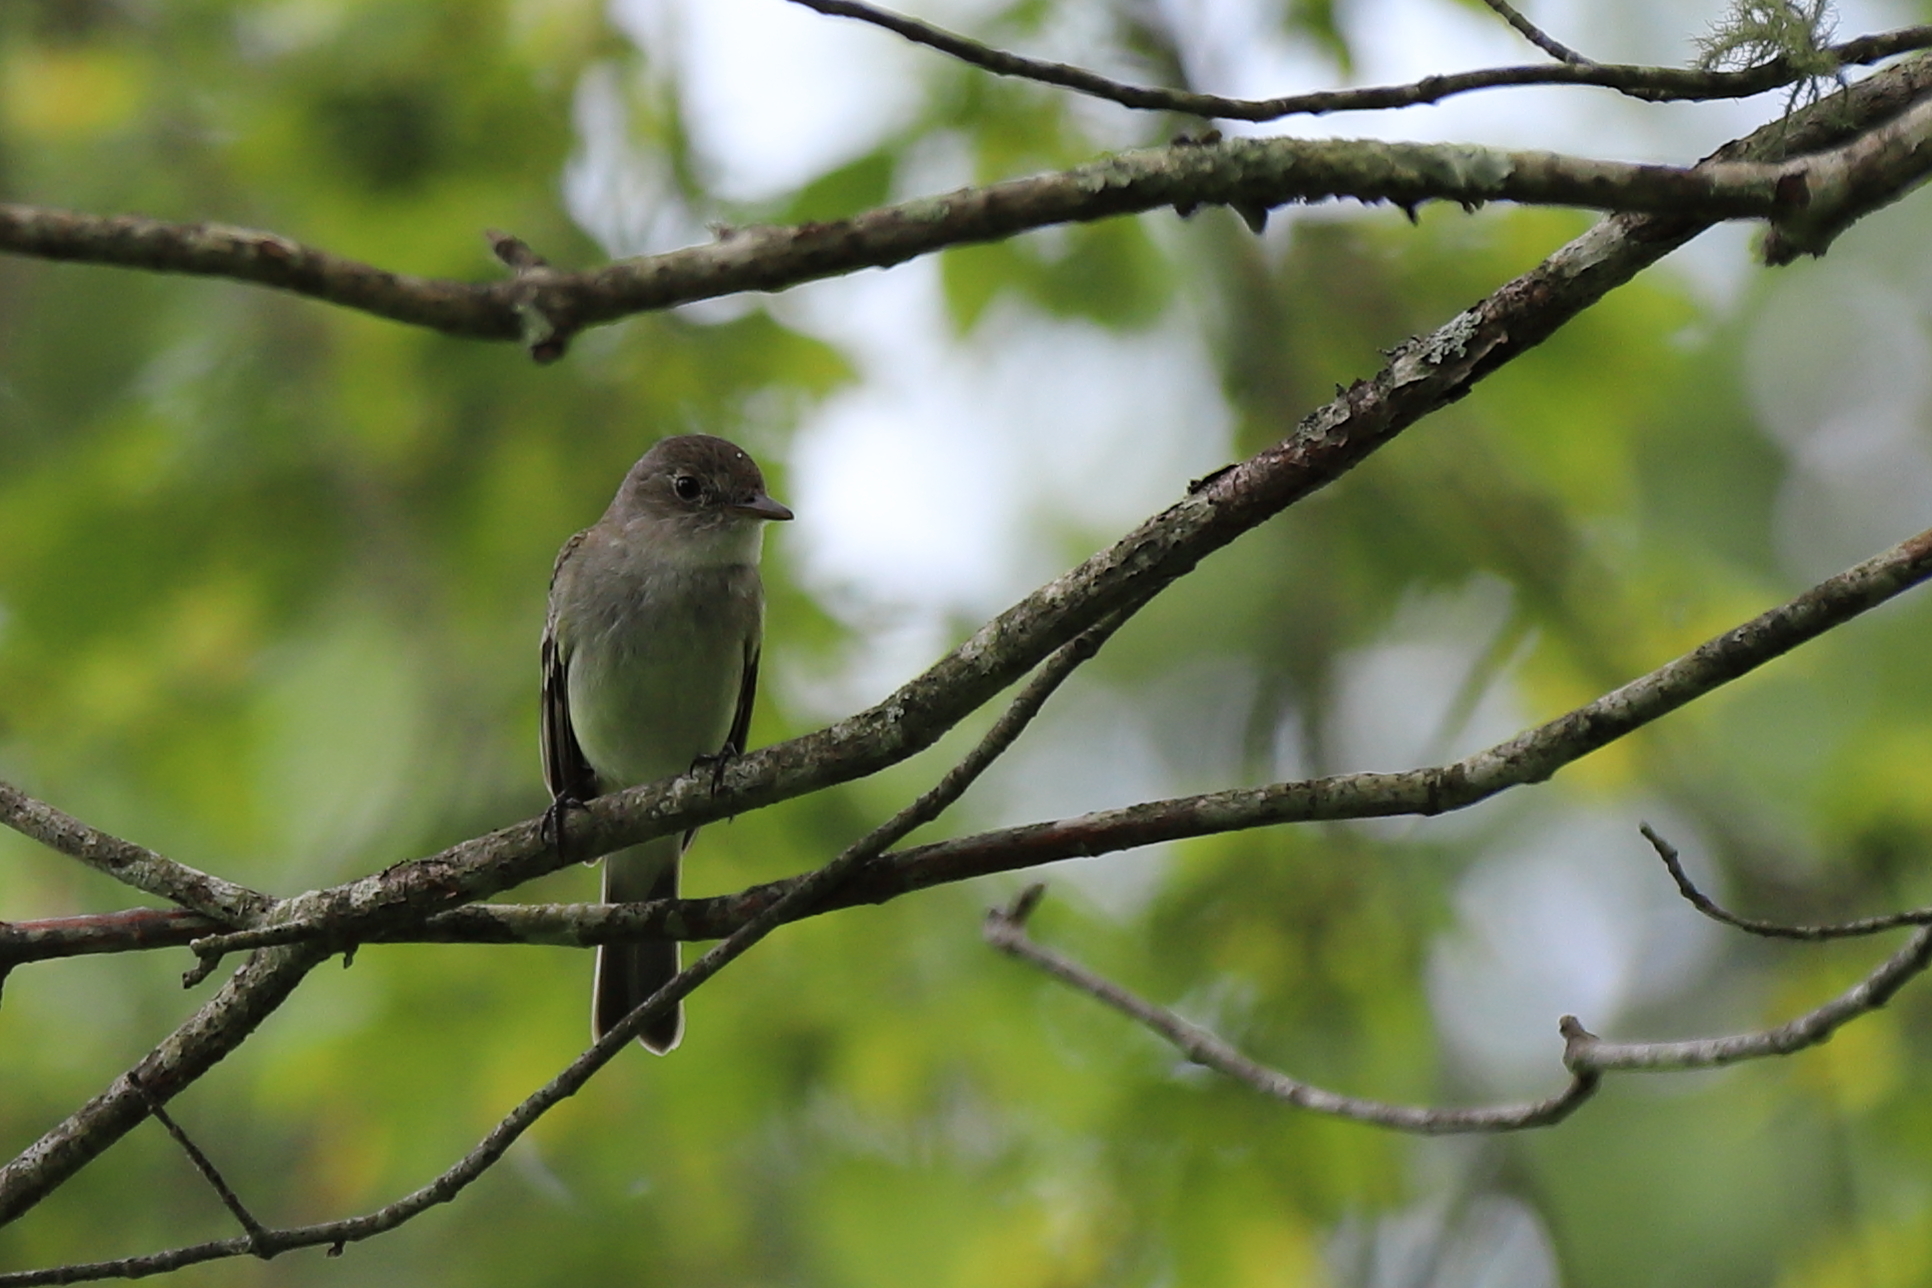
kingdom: Animalia
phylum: Chordata
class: Aves
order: Passeriformes
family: Tyrannidae
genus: Contopus
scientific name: Contopus virens
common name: Eastern wood-pewee
